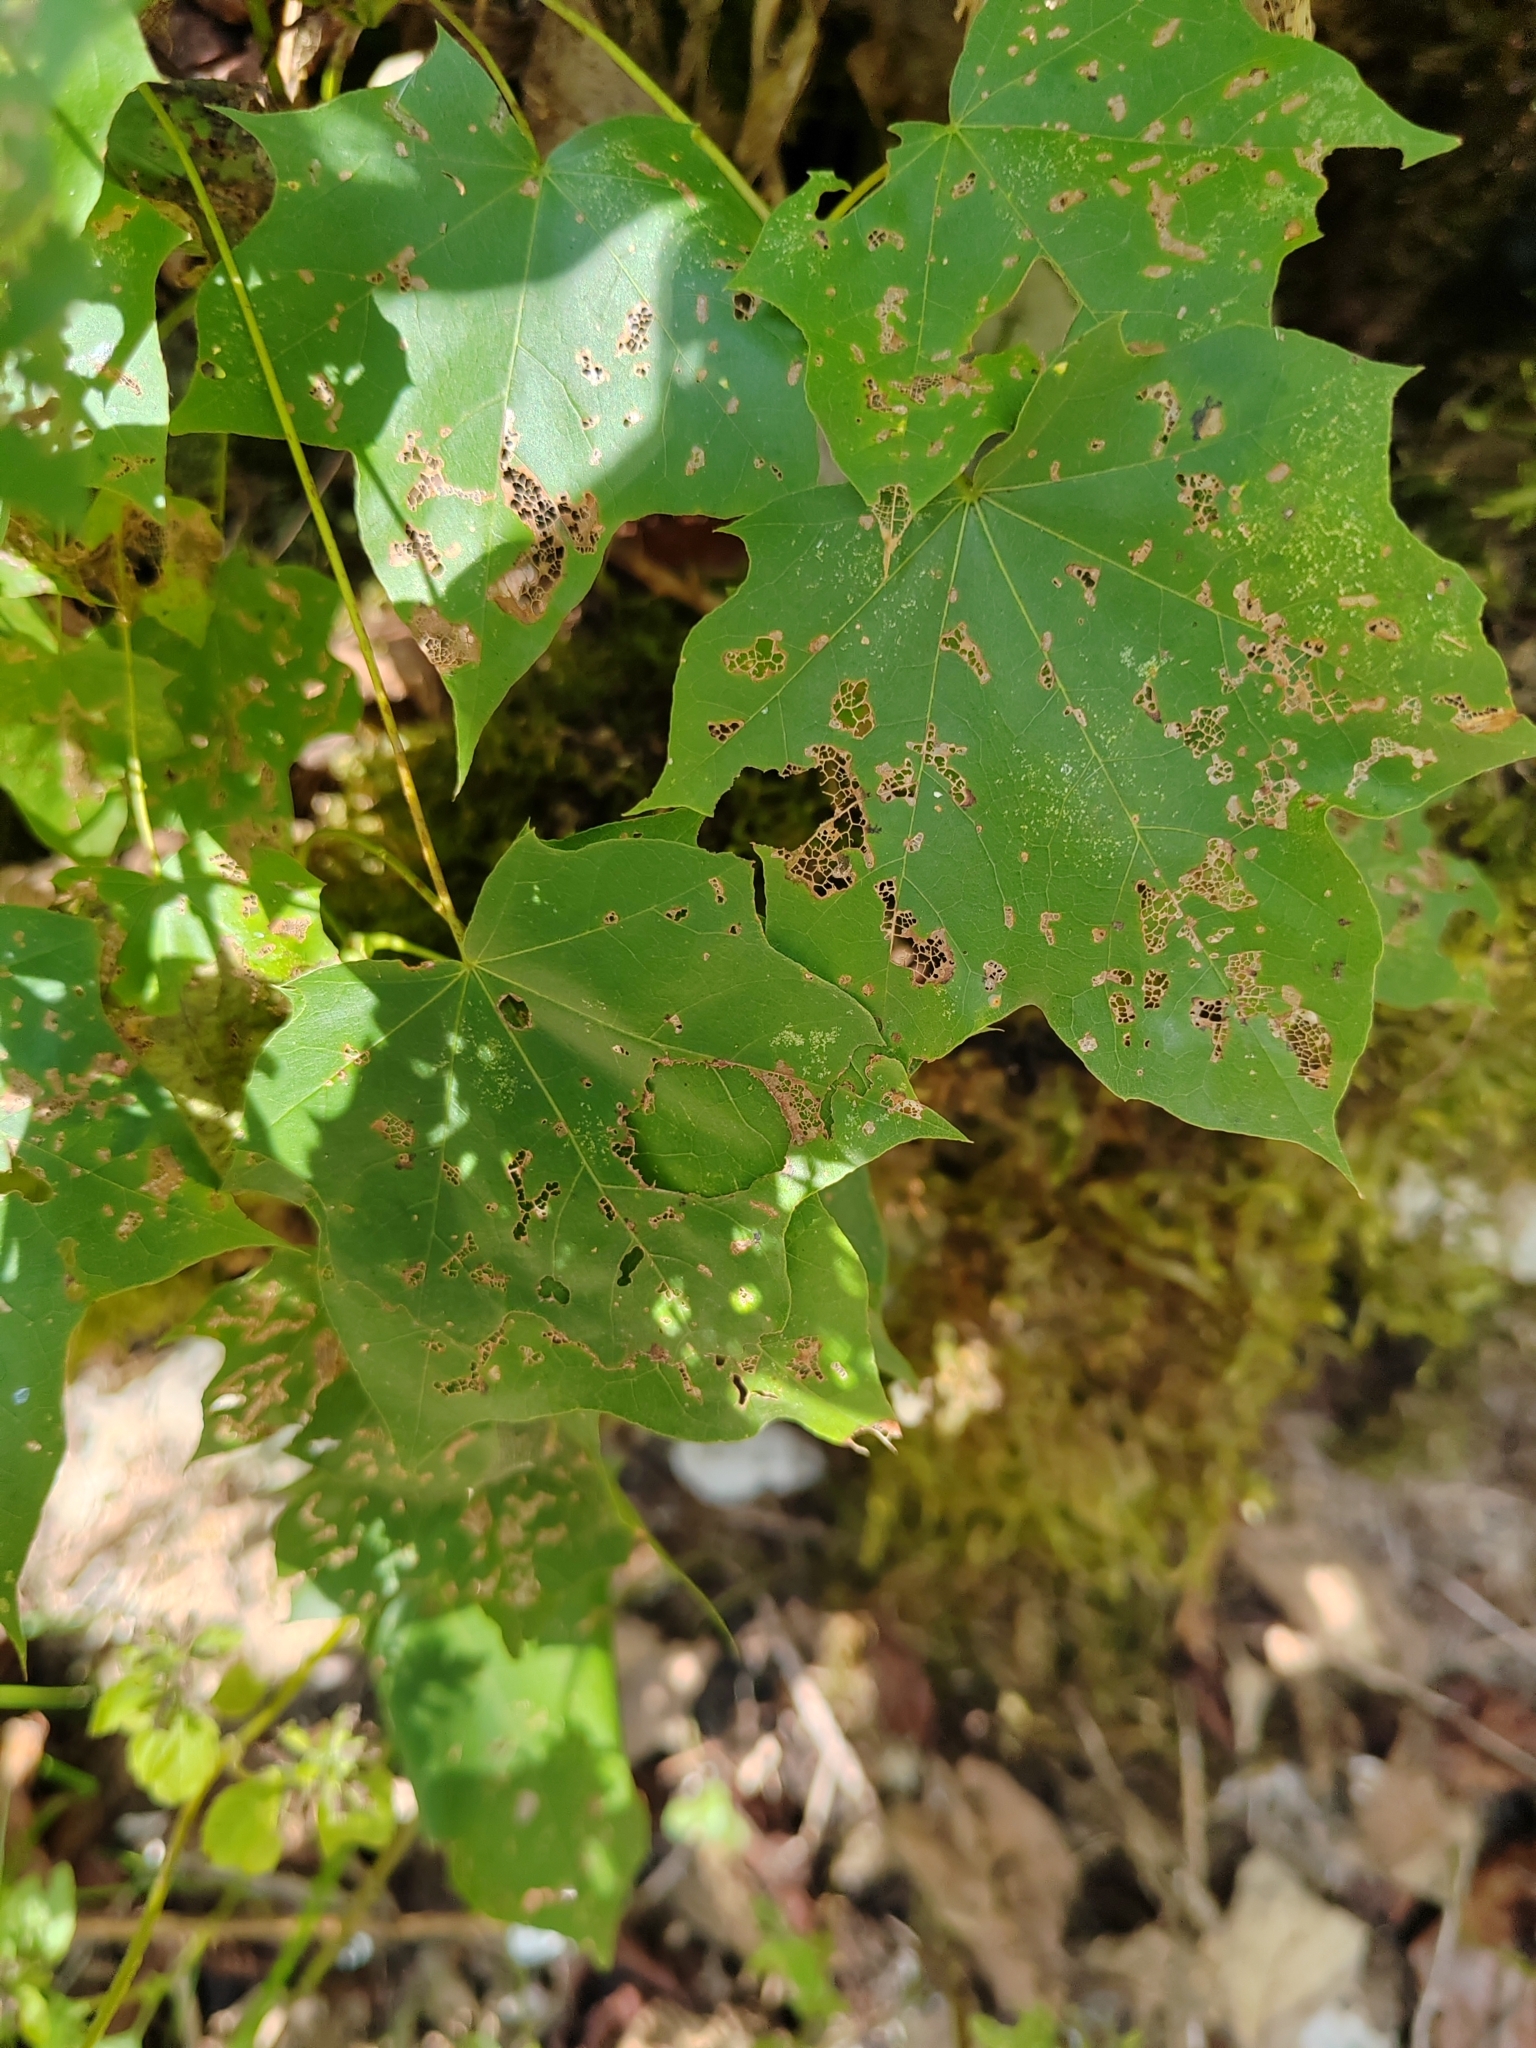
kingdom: Plantae
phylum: Tracheophyta
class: Magnoliopsida
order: Sapindales
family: Sapindaceae
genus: Acer
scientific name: Acer cappadocicum
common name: Cappadocian maple
